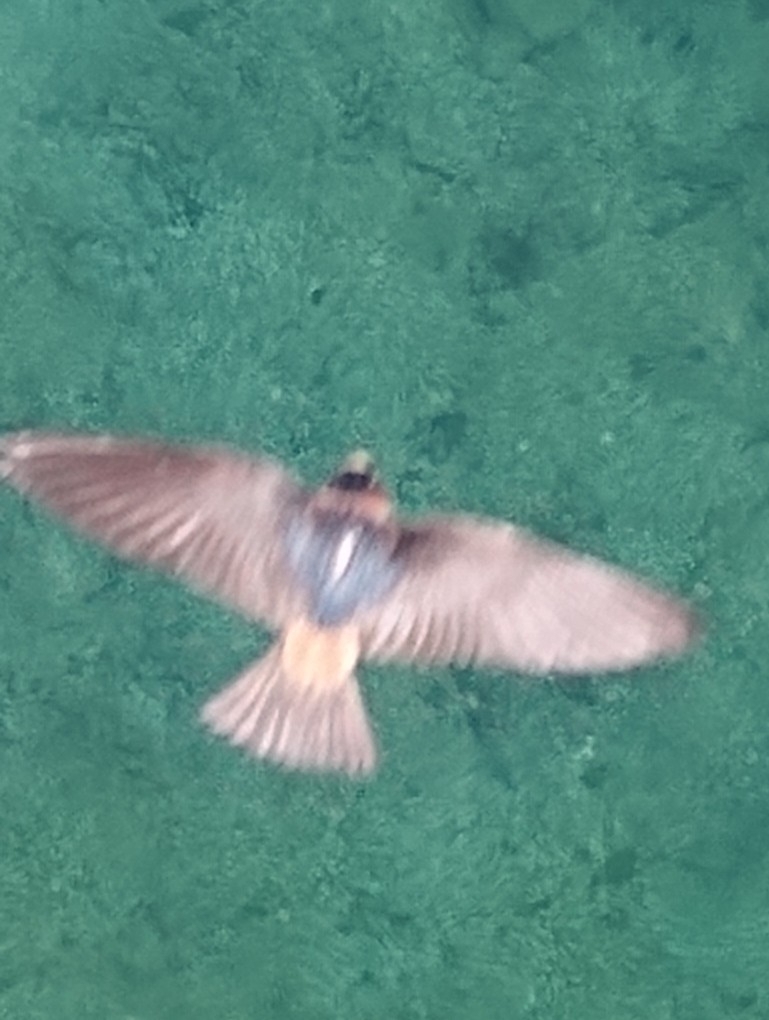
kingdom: Animalia
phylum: Chordata
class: Aves
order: Passeriformes
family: Hirundinidae
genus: Petrochelidon
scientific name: Petrochelidon pyrrhonota
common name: American cliff swallow
